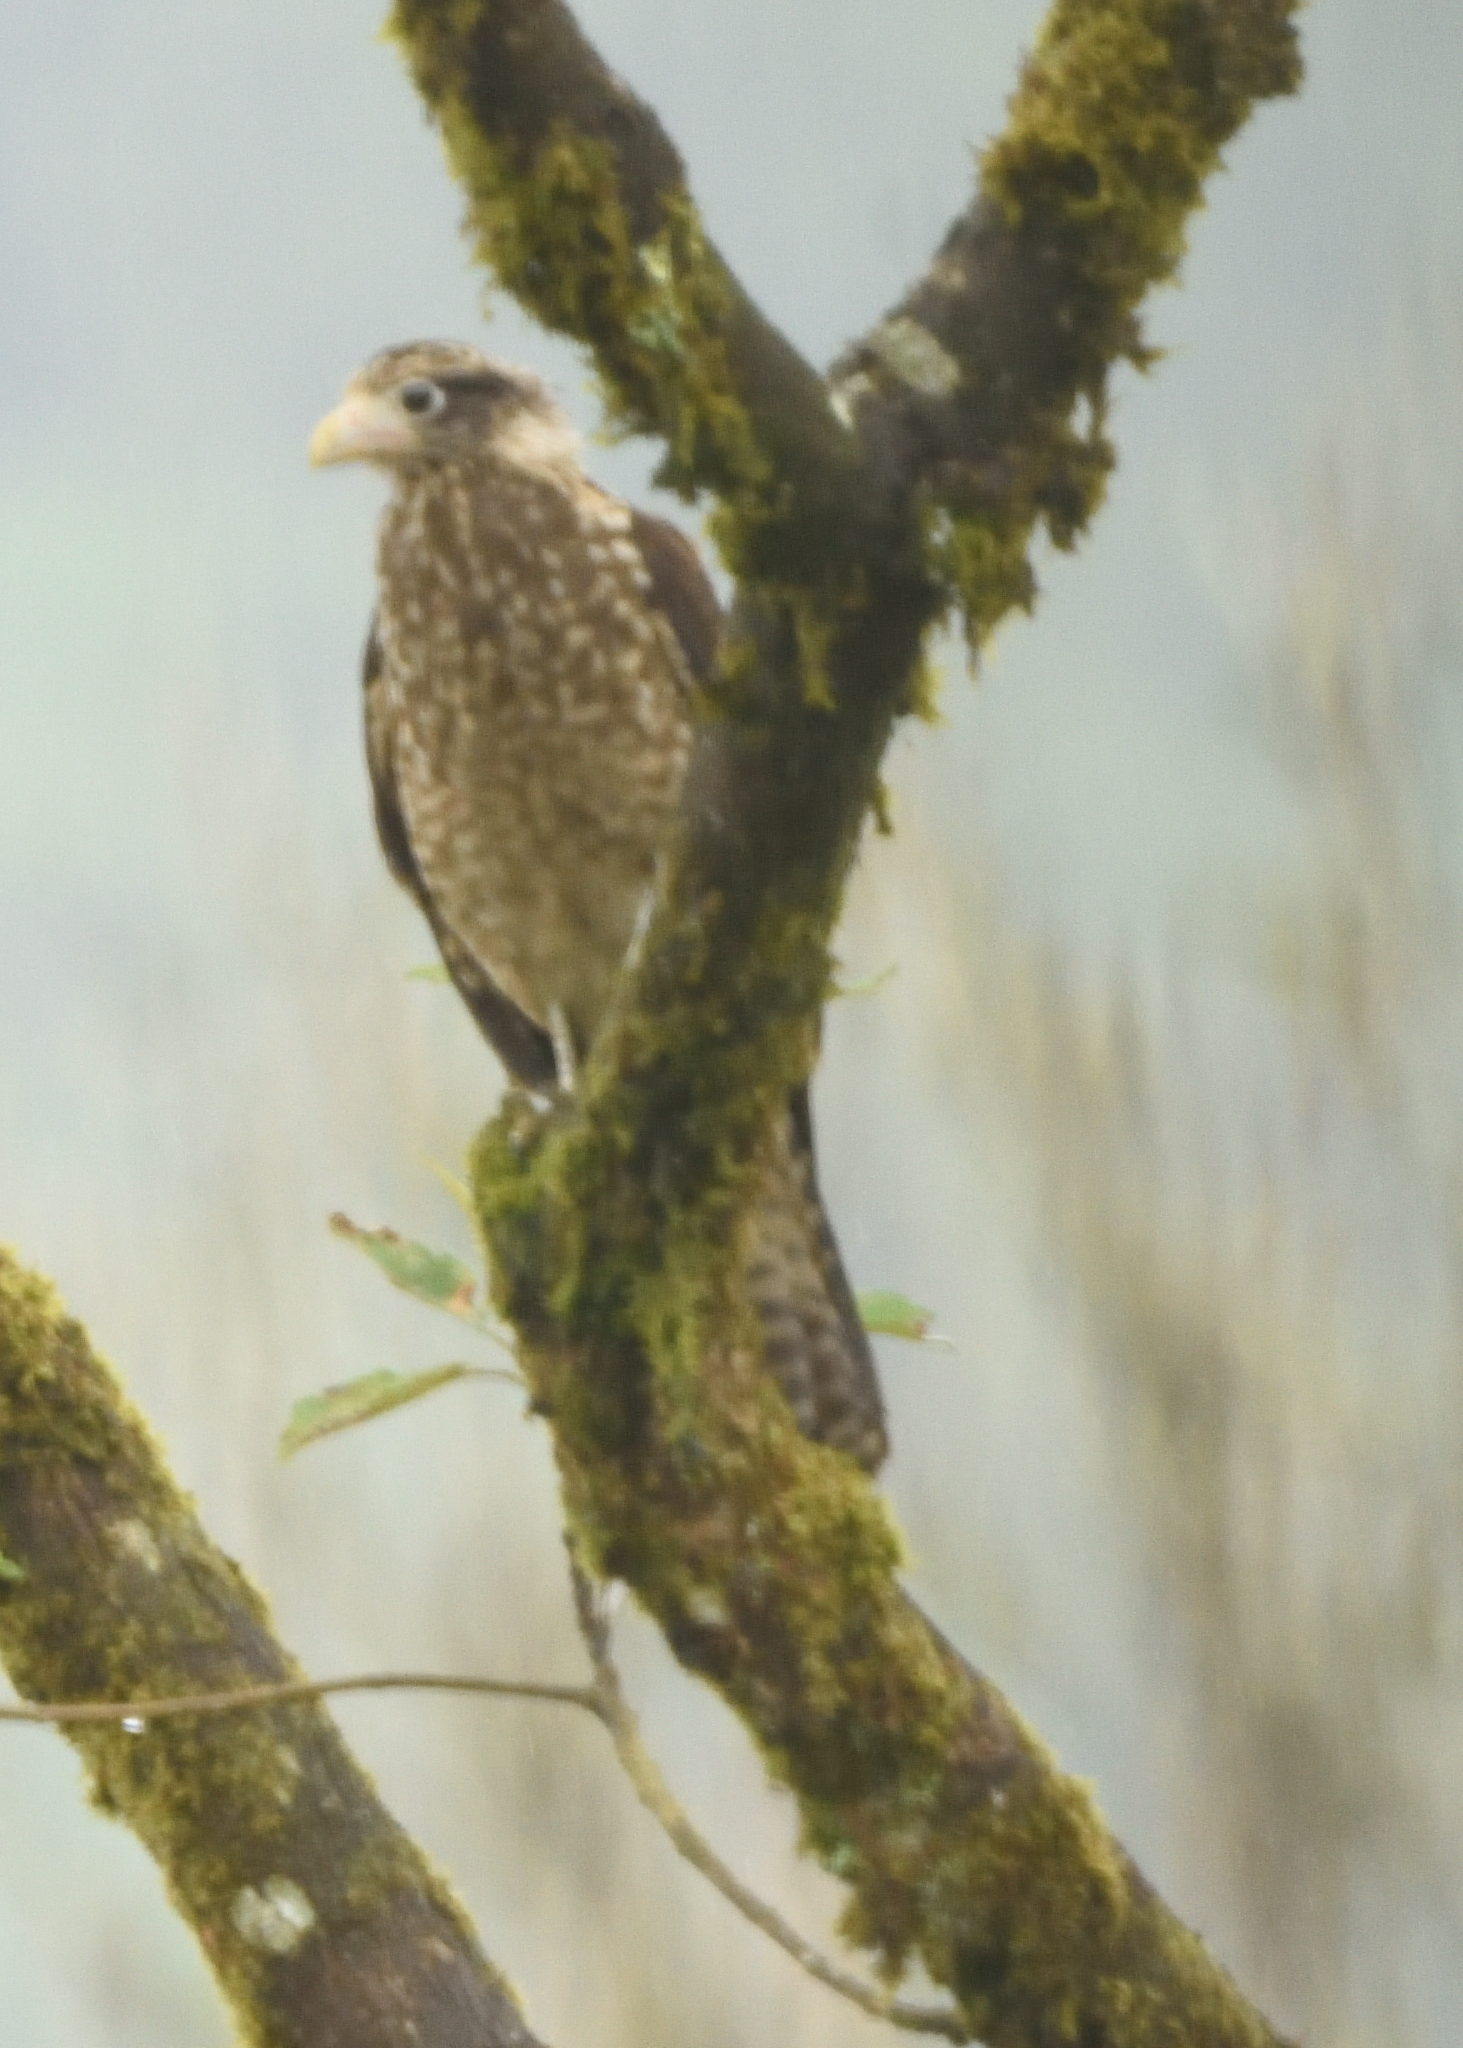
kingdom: Animalia
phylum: Chordata
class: Aves
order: Falconiformes
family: Falconidae
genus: Daptrius
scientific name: Daptrius
